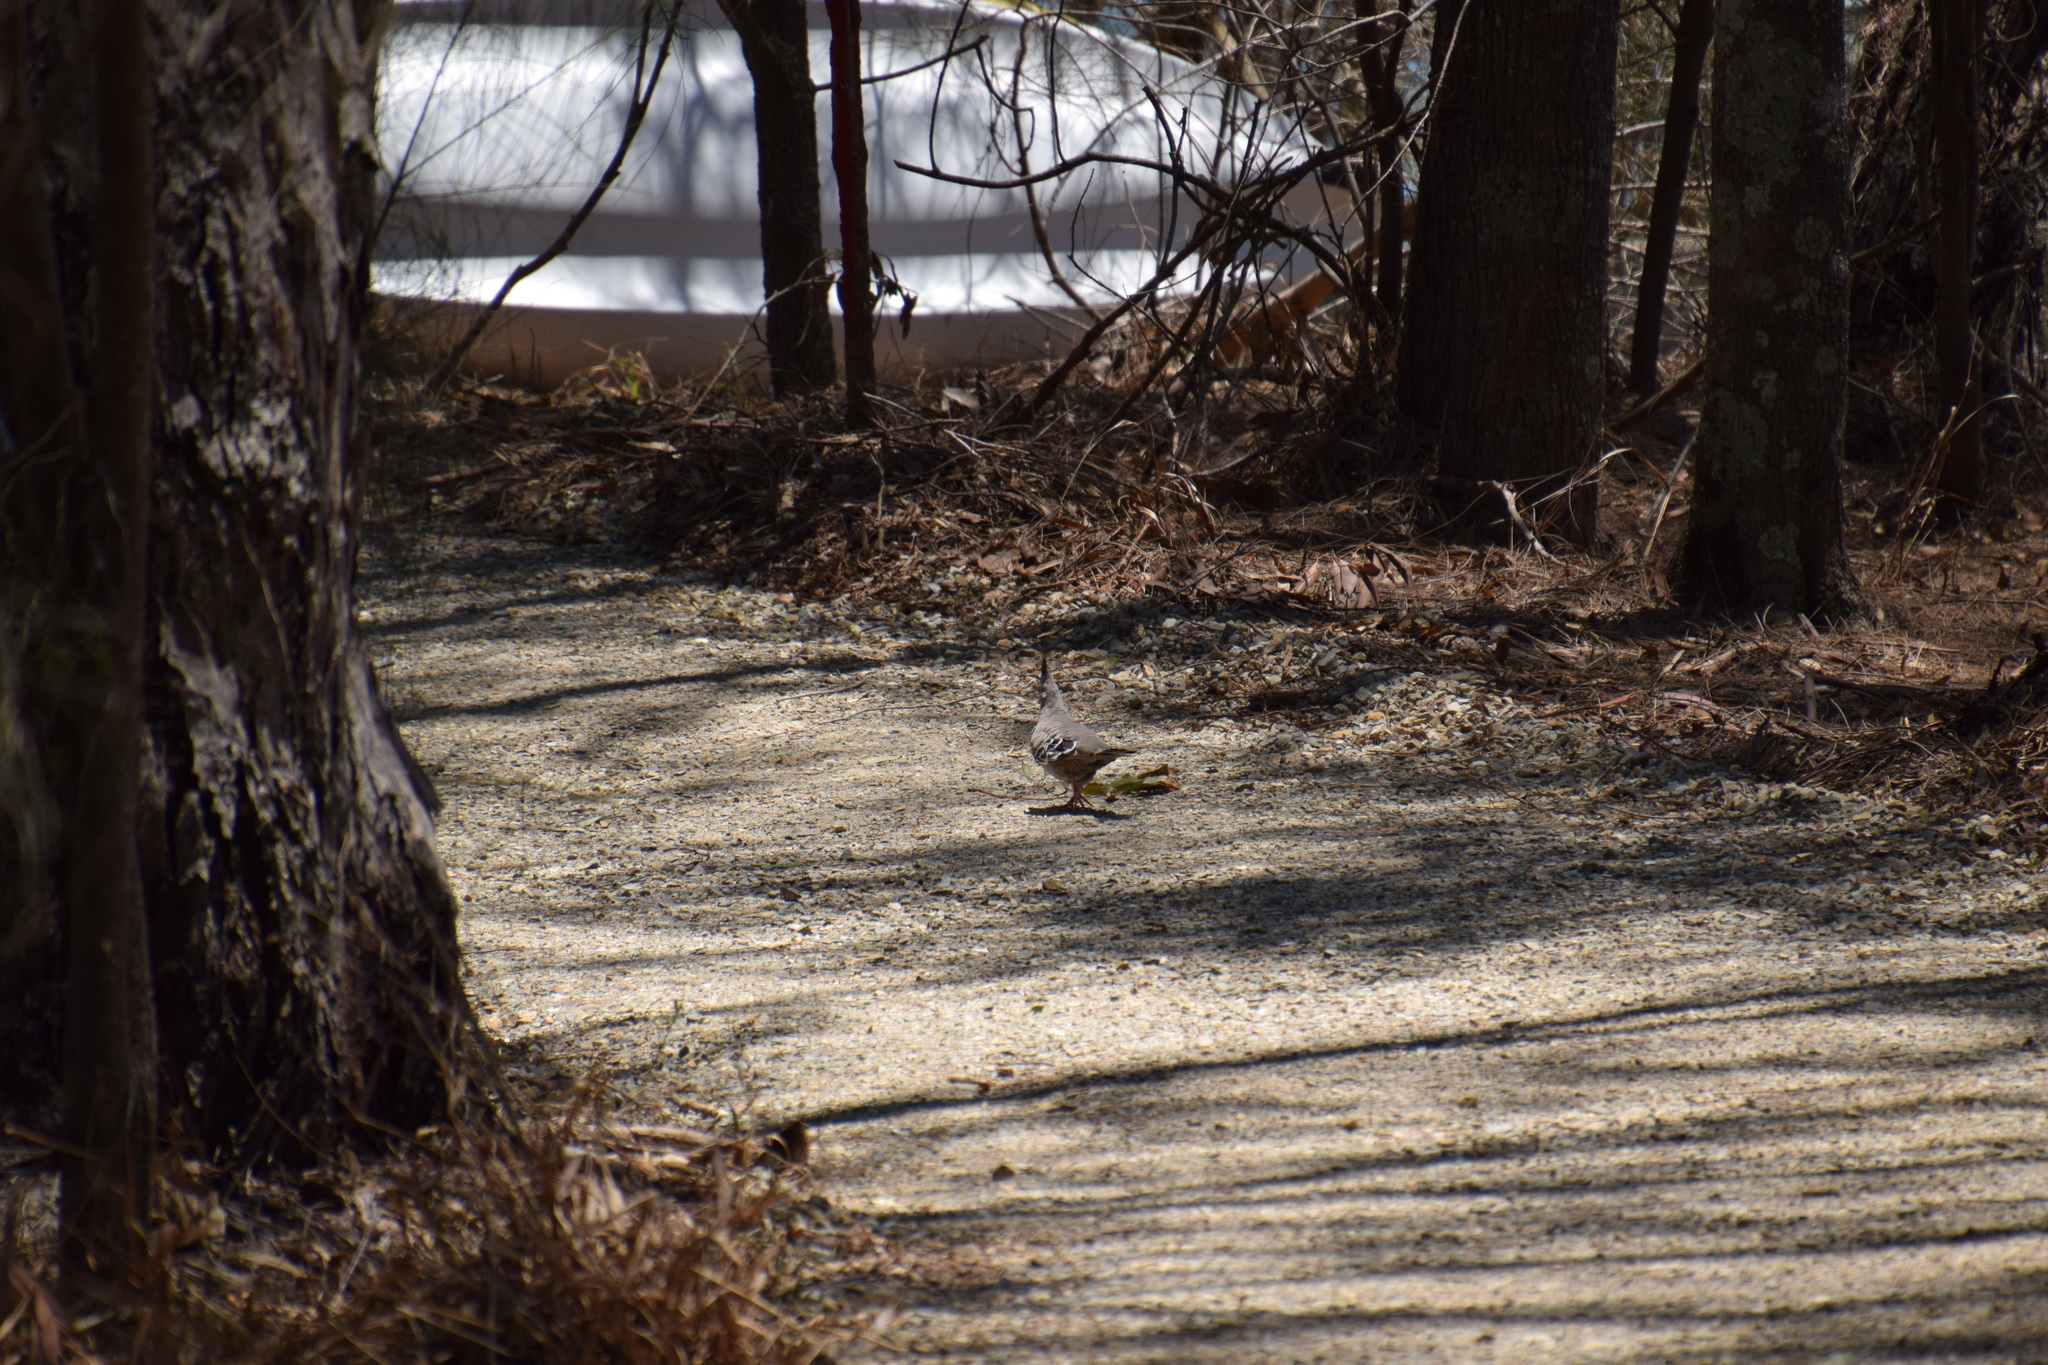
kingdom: Animalia
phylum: Chordata
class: Aves
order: Columbiformes
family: Columbidae
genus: Ocyphaps
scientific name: Ocyphaps lophotes
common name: Crested pigeon
